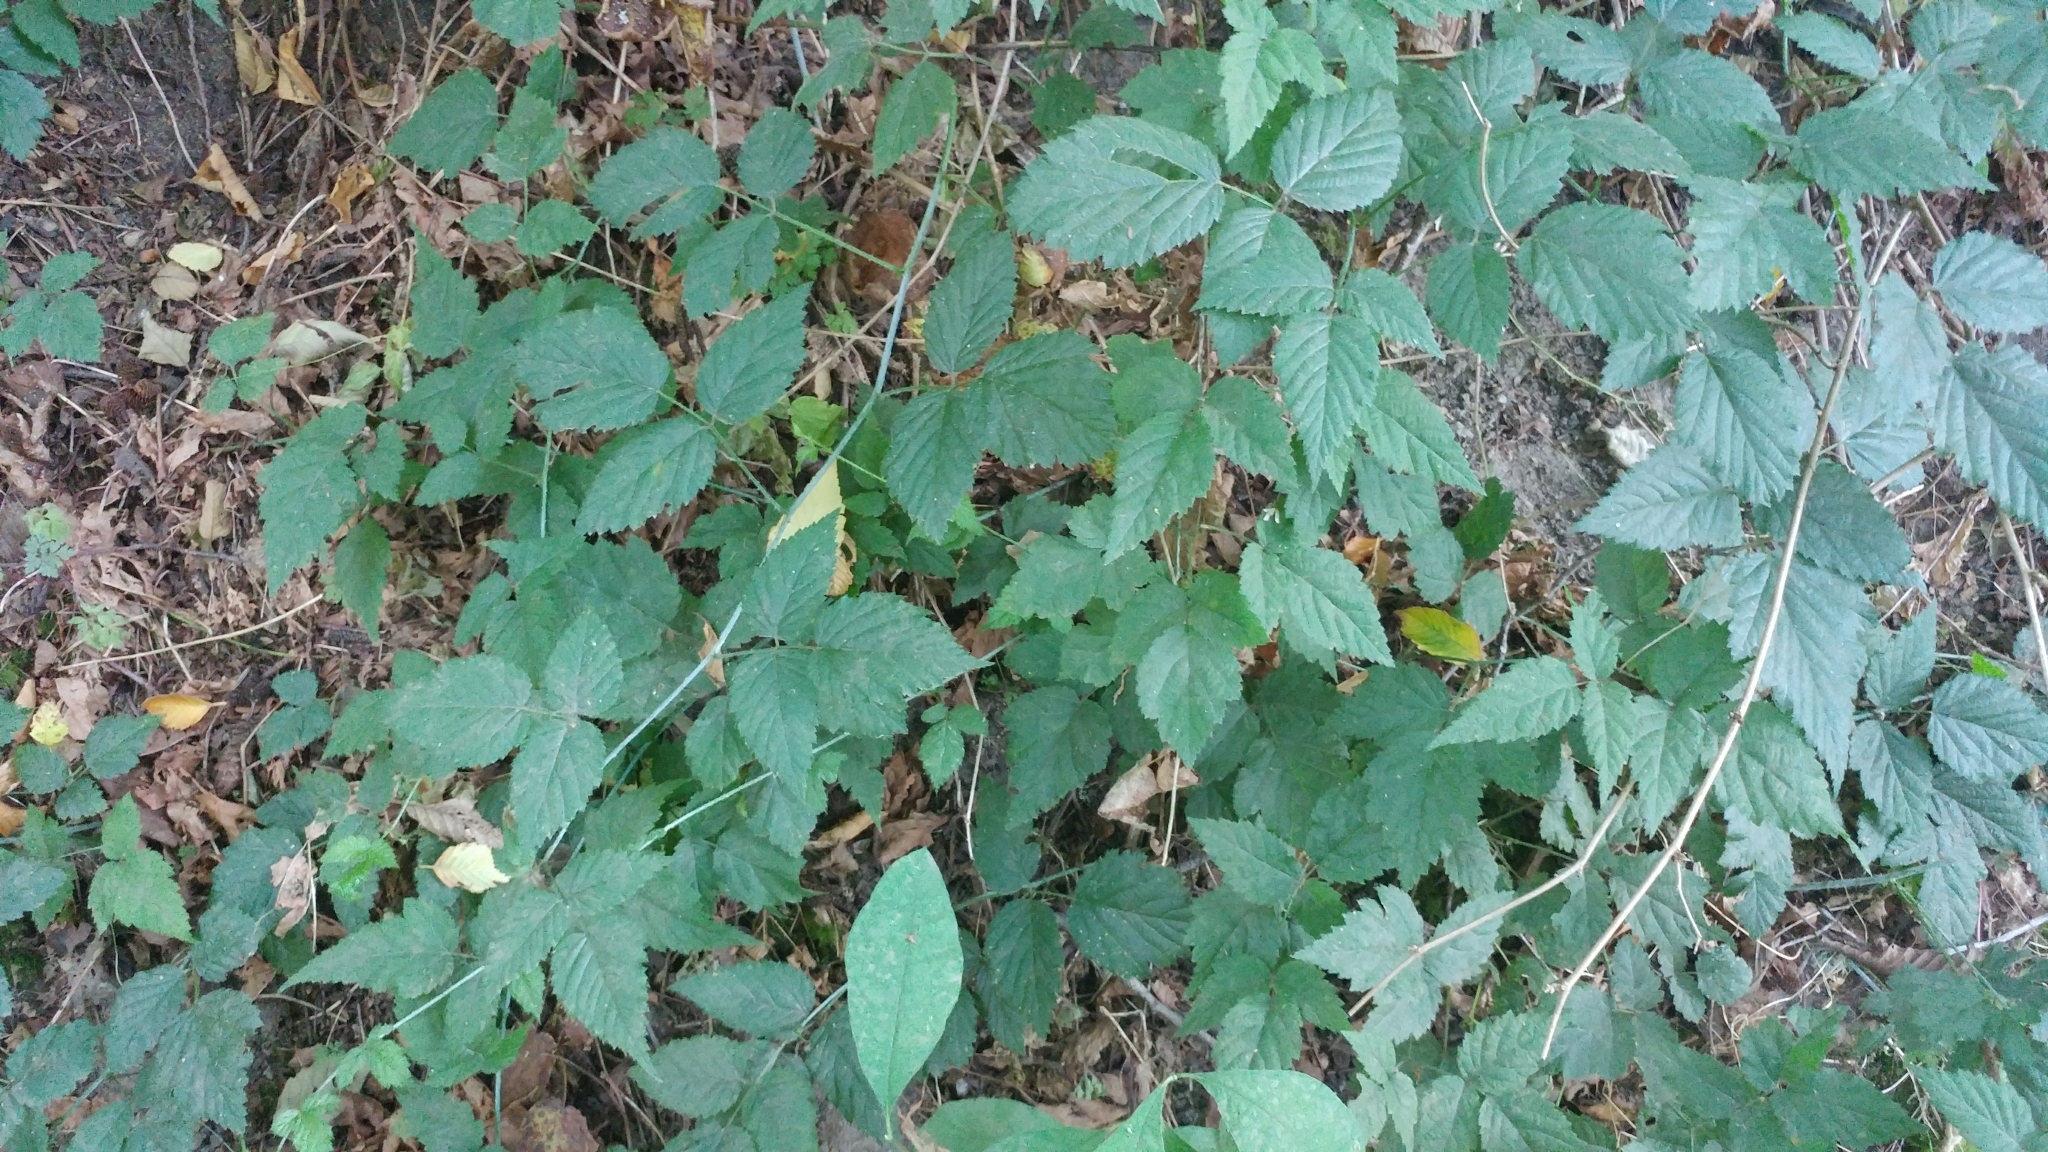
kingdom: Plantae
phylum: Tracheophyta
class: Magnoliopsida
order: Rosales
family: Rosaceae
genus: Rubus
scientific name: Rubus ursinus
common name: Pacific blackberry
